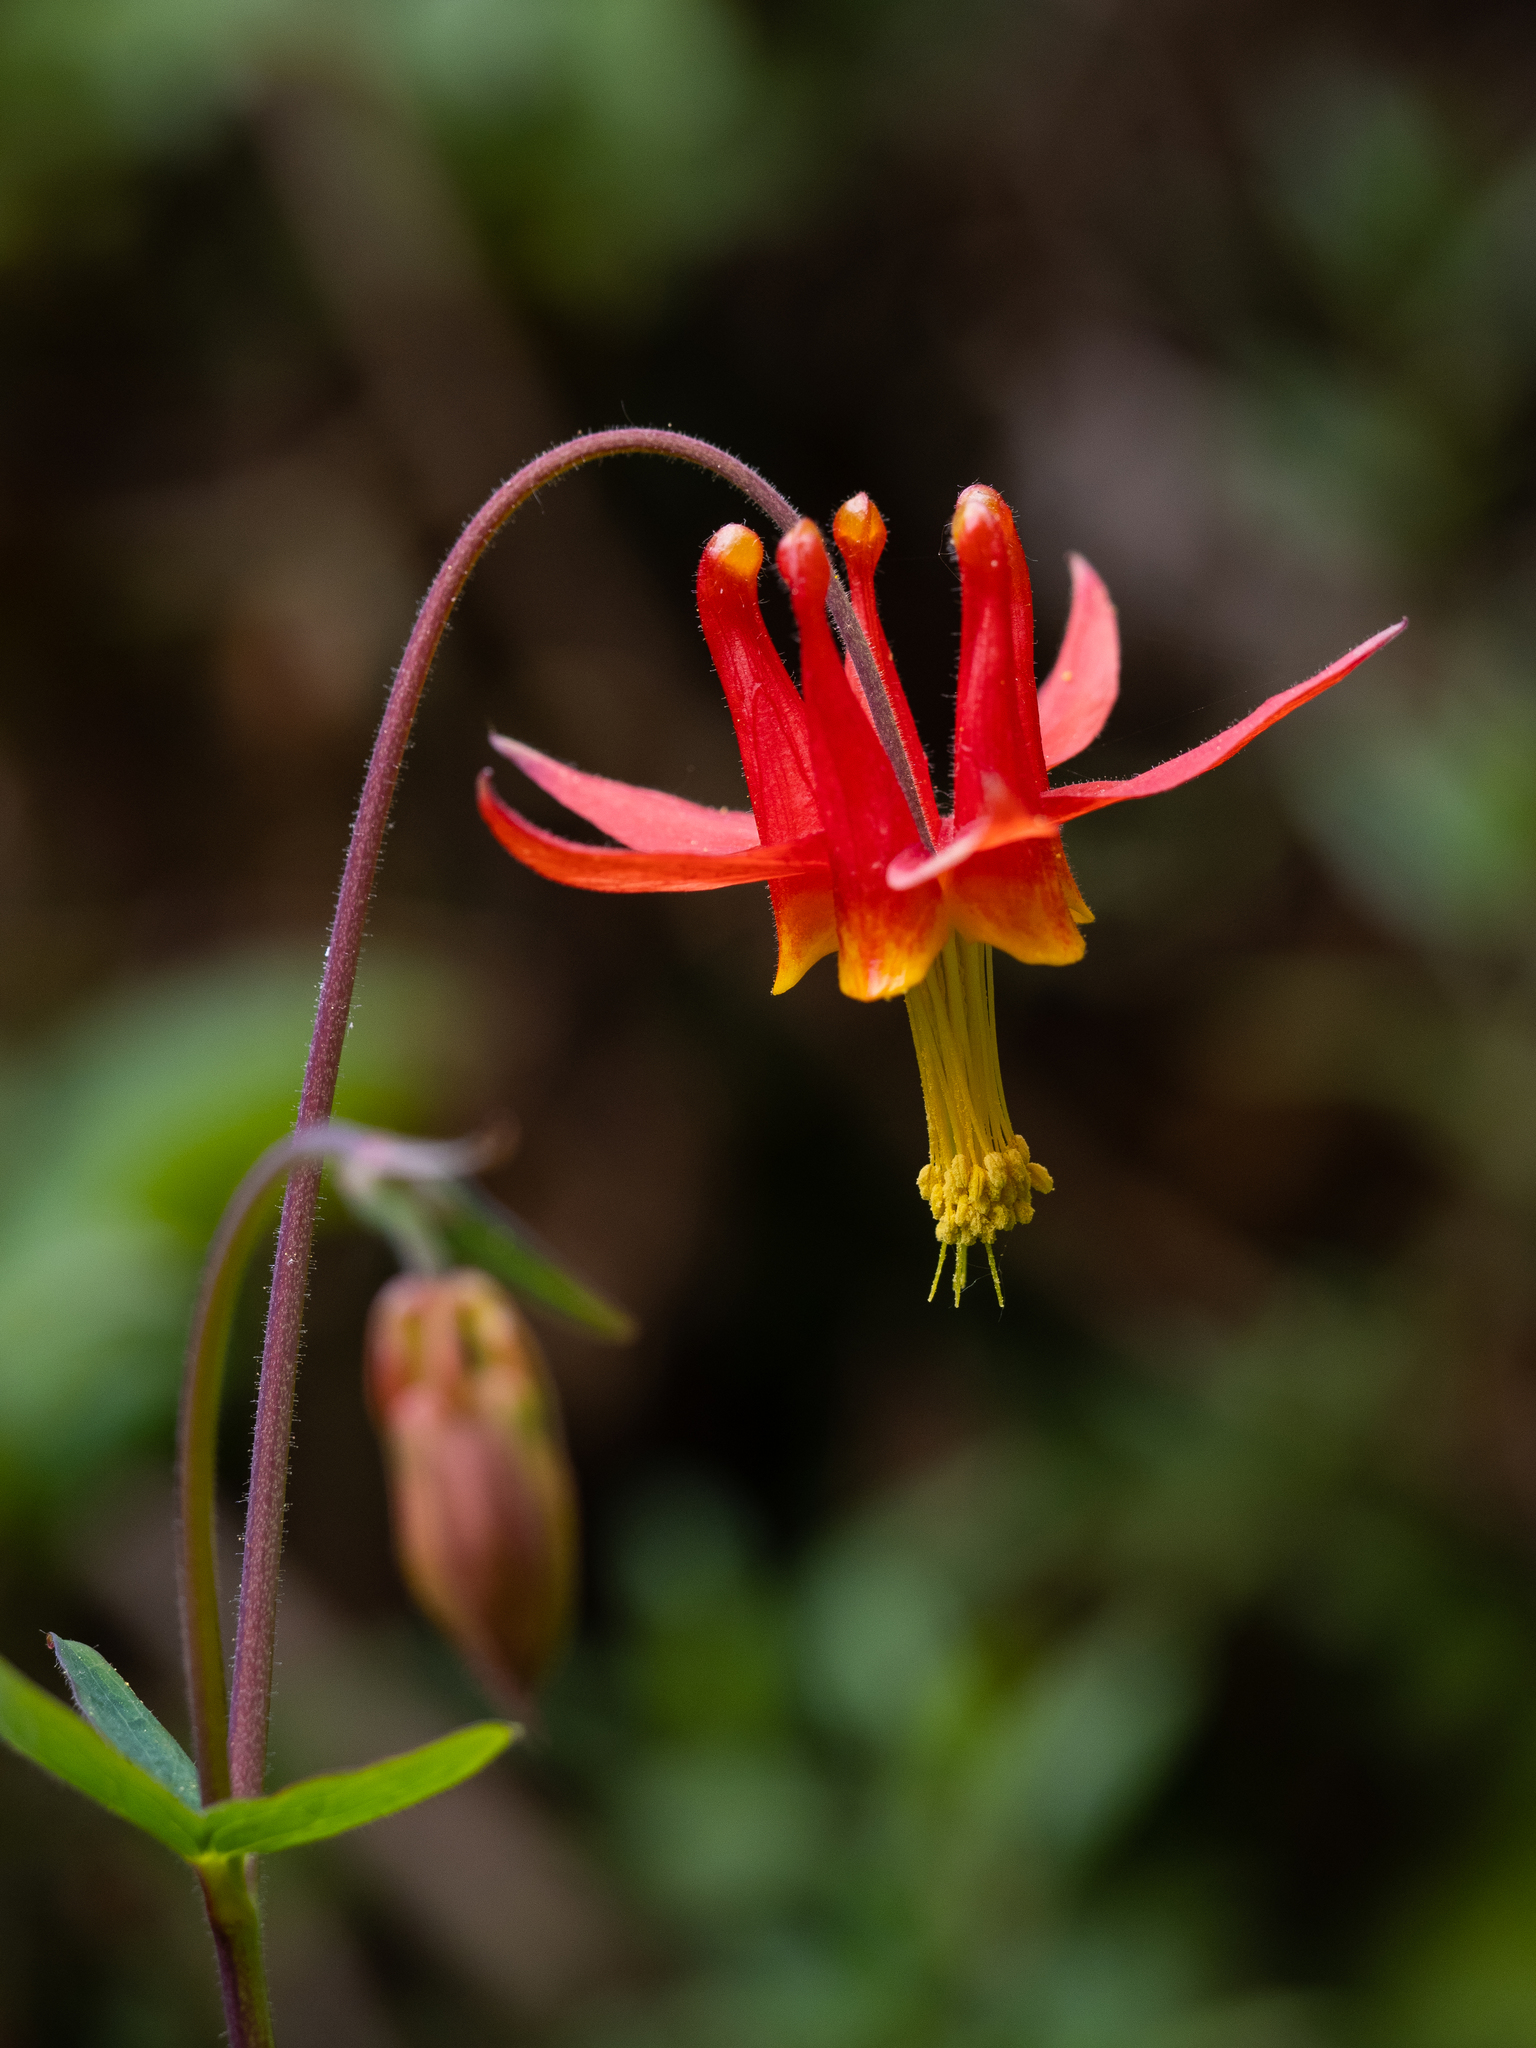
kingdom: Plantae
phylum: Tracheophyta
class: Magnoliopsida
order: Ranunculales
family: Ranunculaceae
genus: Aquilegia
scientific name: Aquilegia formosa
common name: Sitka columbine
